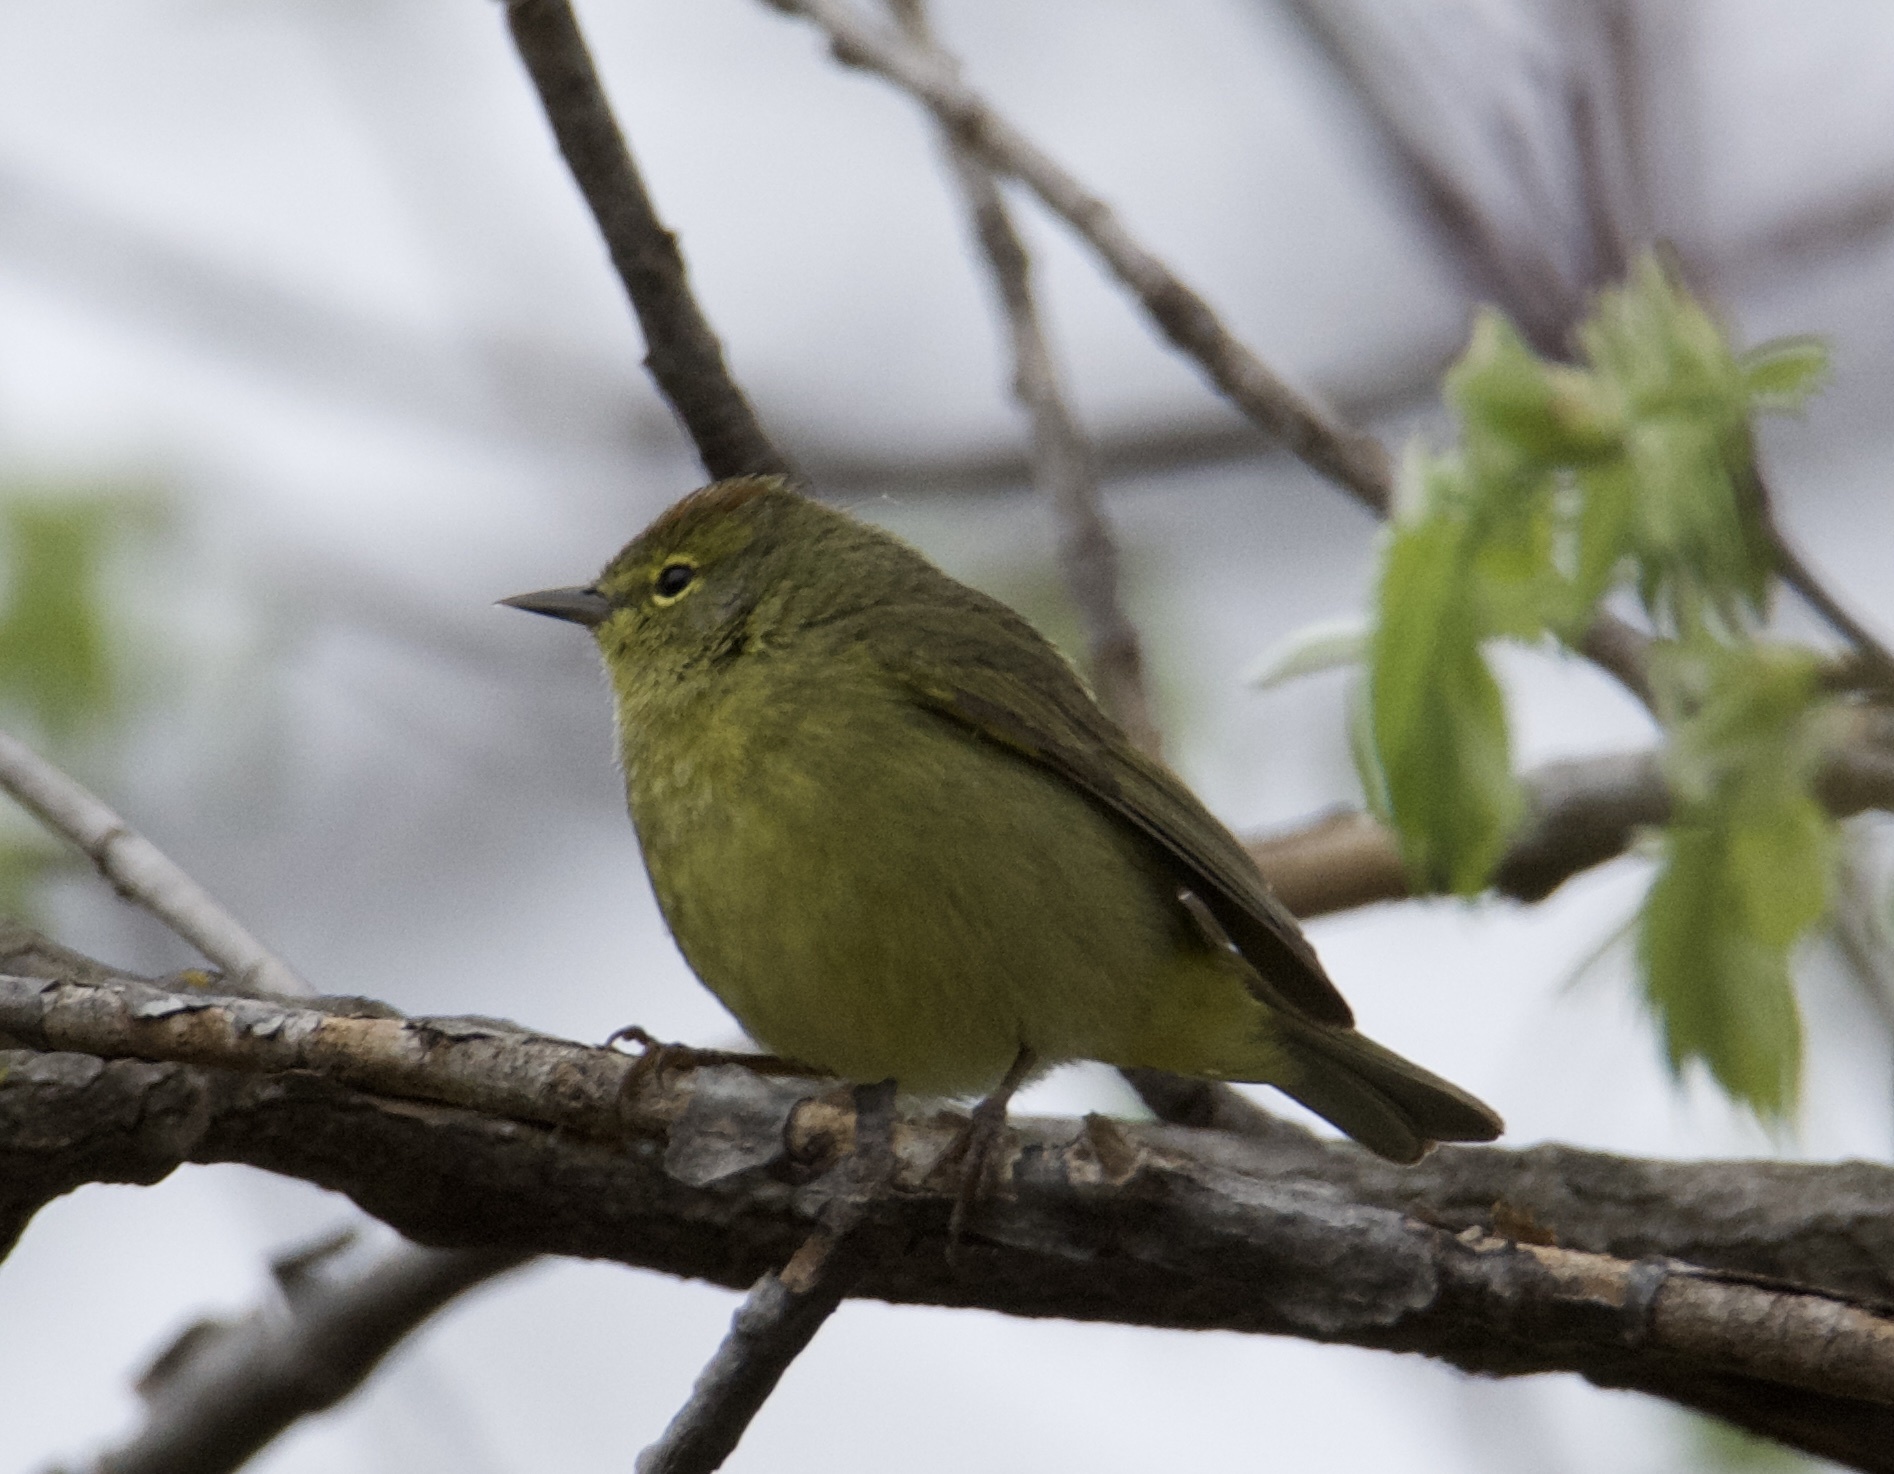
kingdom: Animalia
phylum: Chordata
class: Aves
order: Passeriformes
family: Parulidae
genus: Leiothlypis
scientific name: Leiothlypis celata
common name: Orange-crowned warbler
